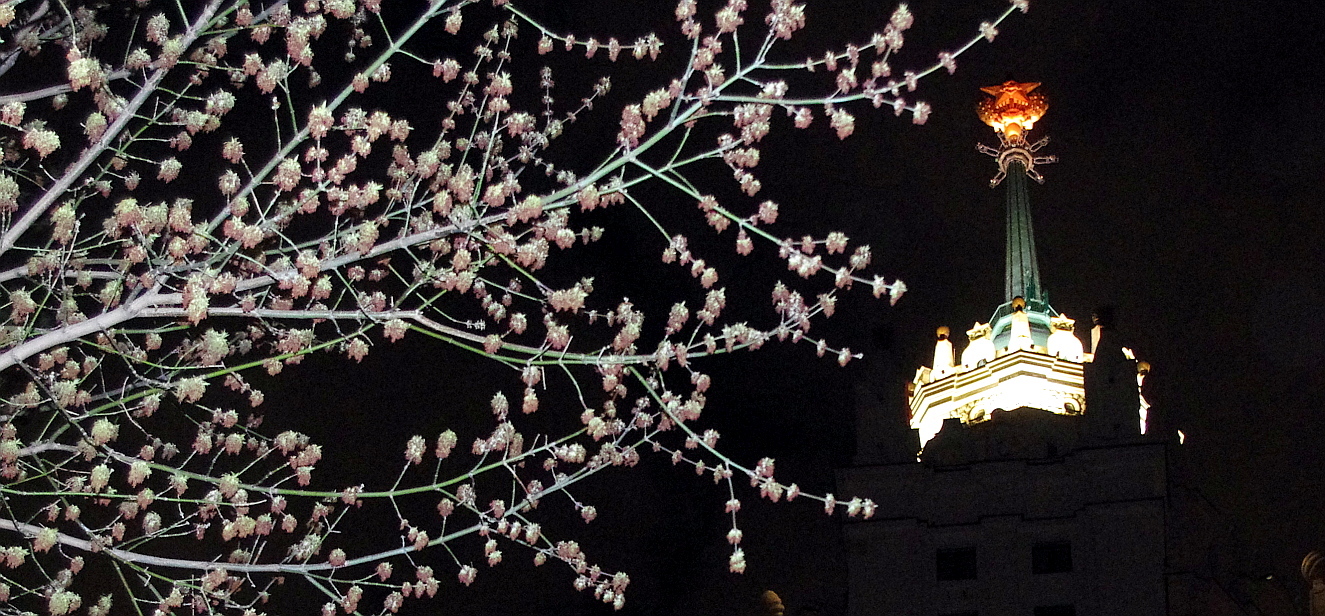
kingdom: Plantae
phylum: Tracheophyta
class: Magnoliopsida
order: Sapindales
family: Sapindaceae
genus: Acer
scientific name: Acer negundo
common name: Ashleaf maple
